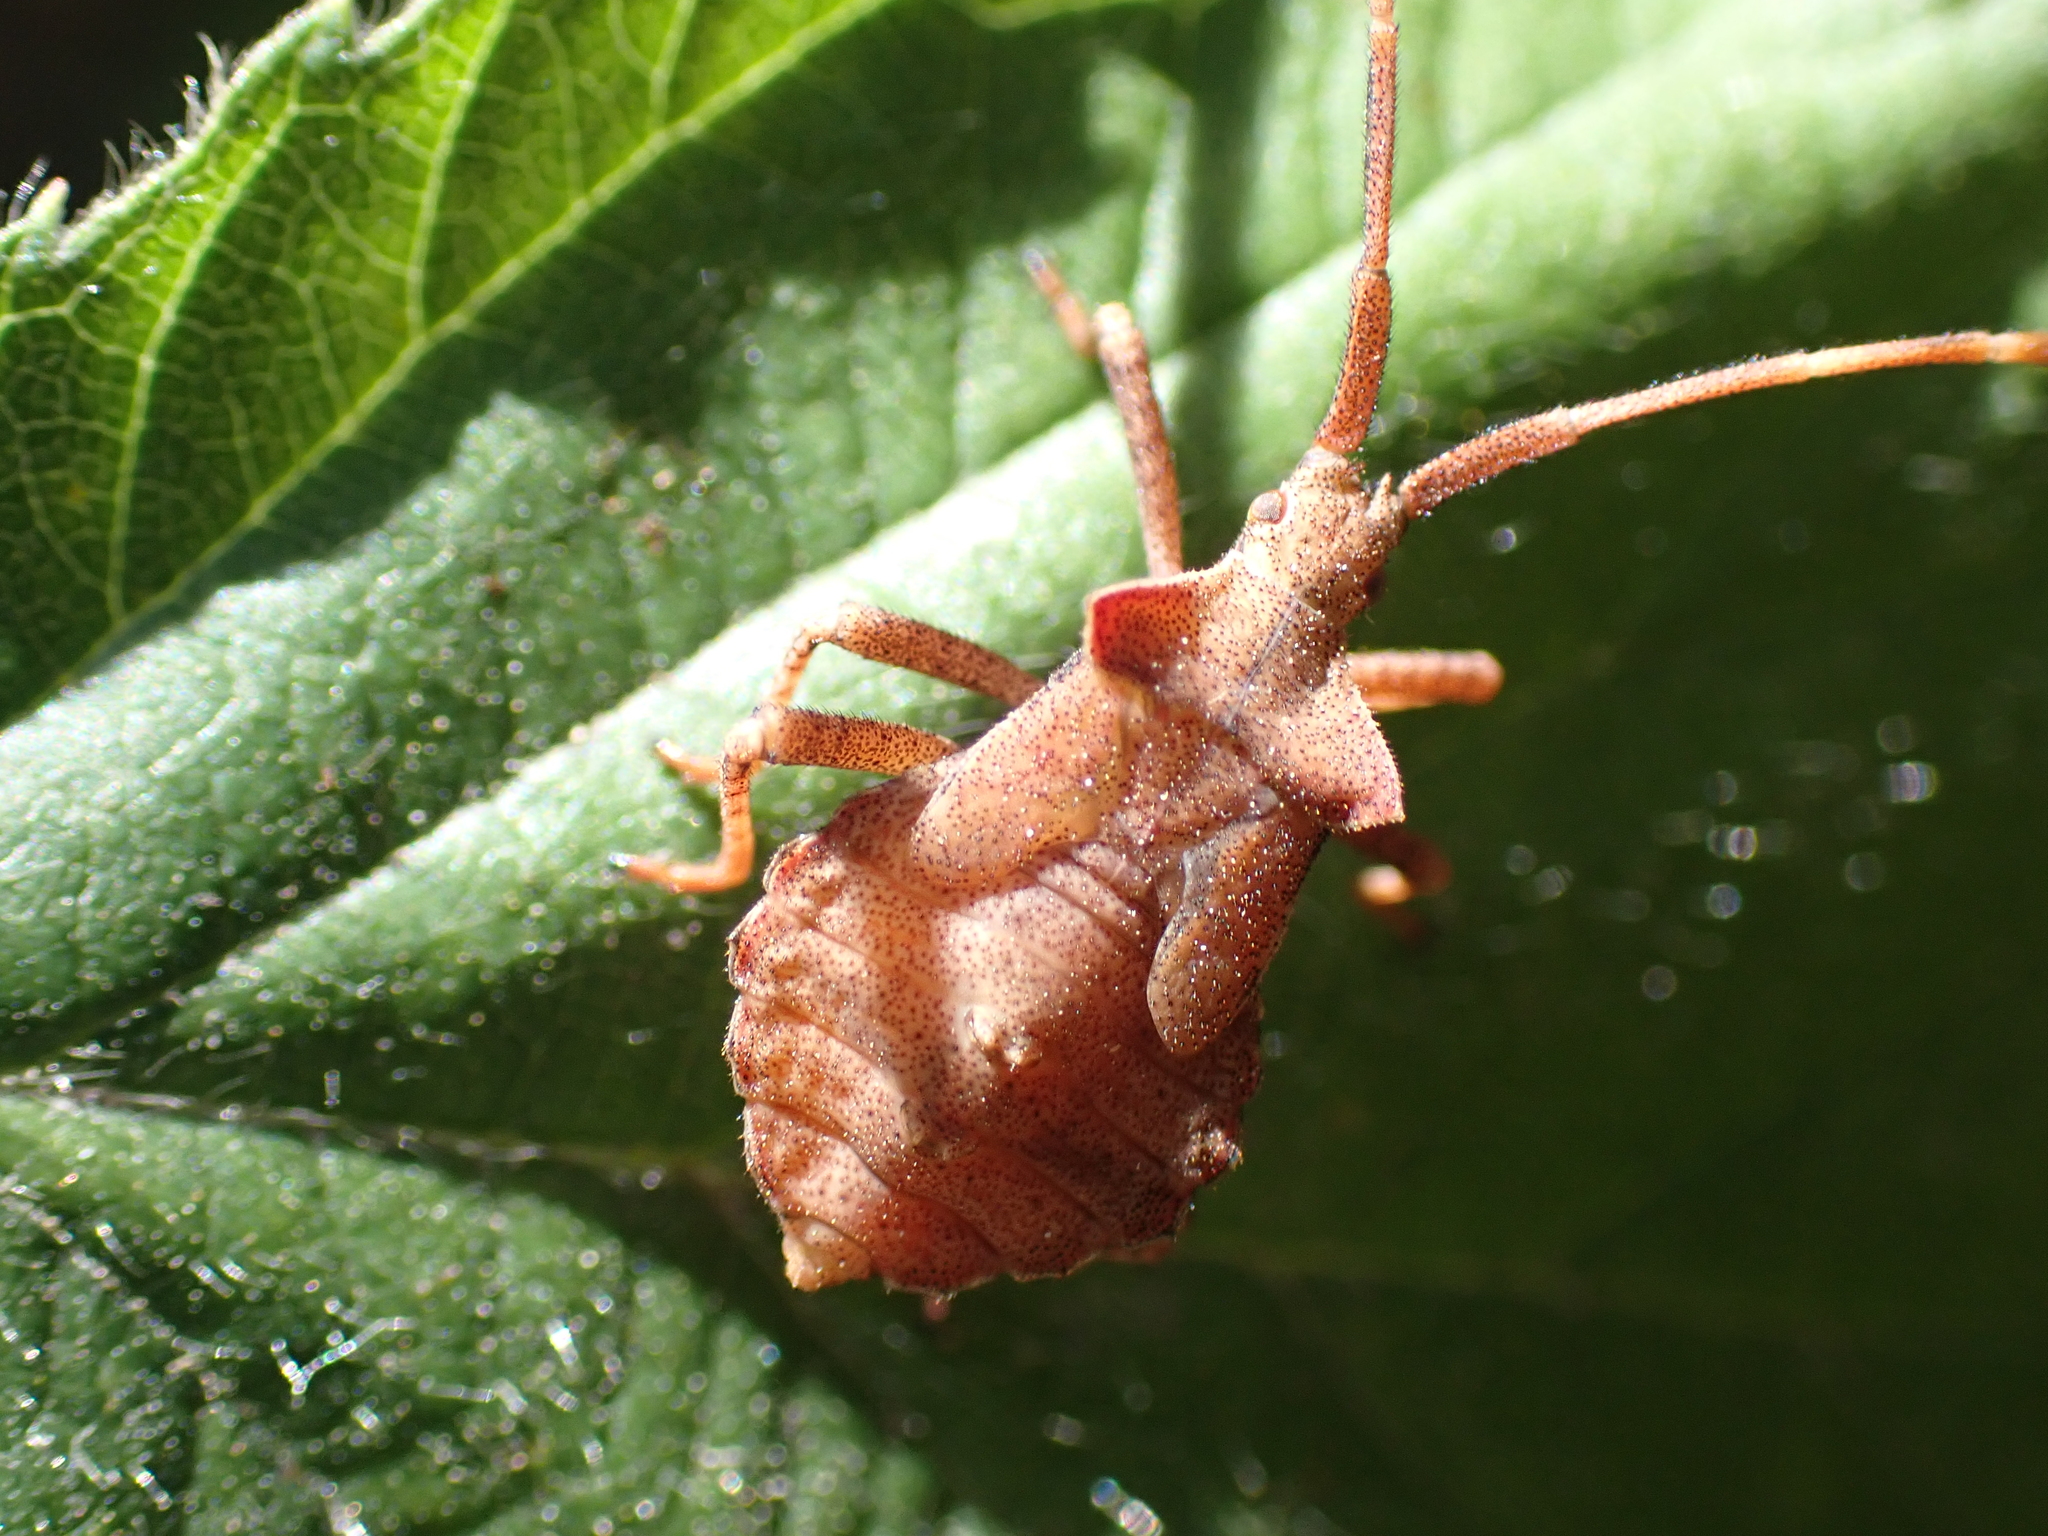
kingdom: Animalia
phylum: Arthropoda
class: Insecta
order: Hemiptera
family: Coreidae
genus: Coreus
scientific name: Coreus marginatus
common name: Dock bug
